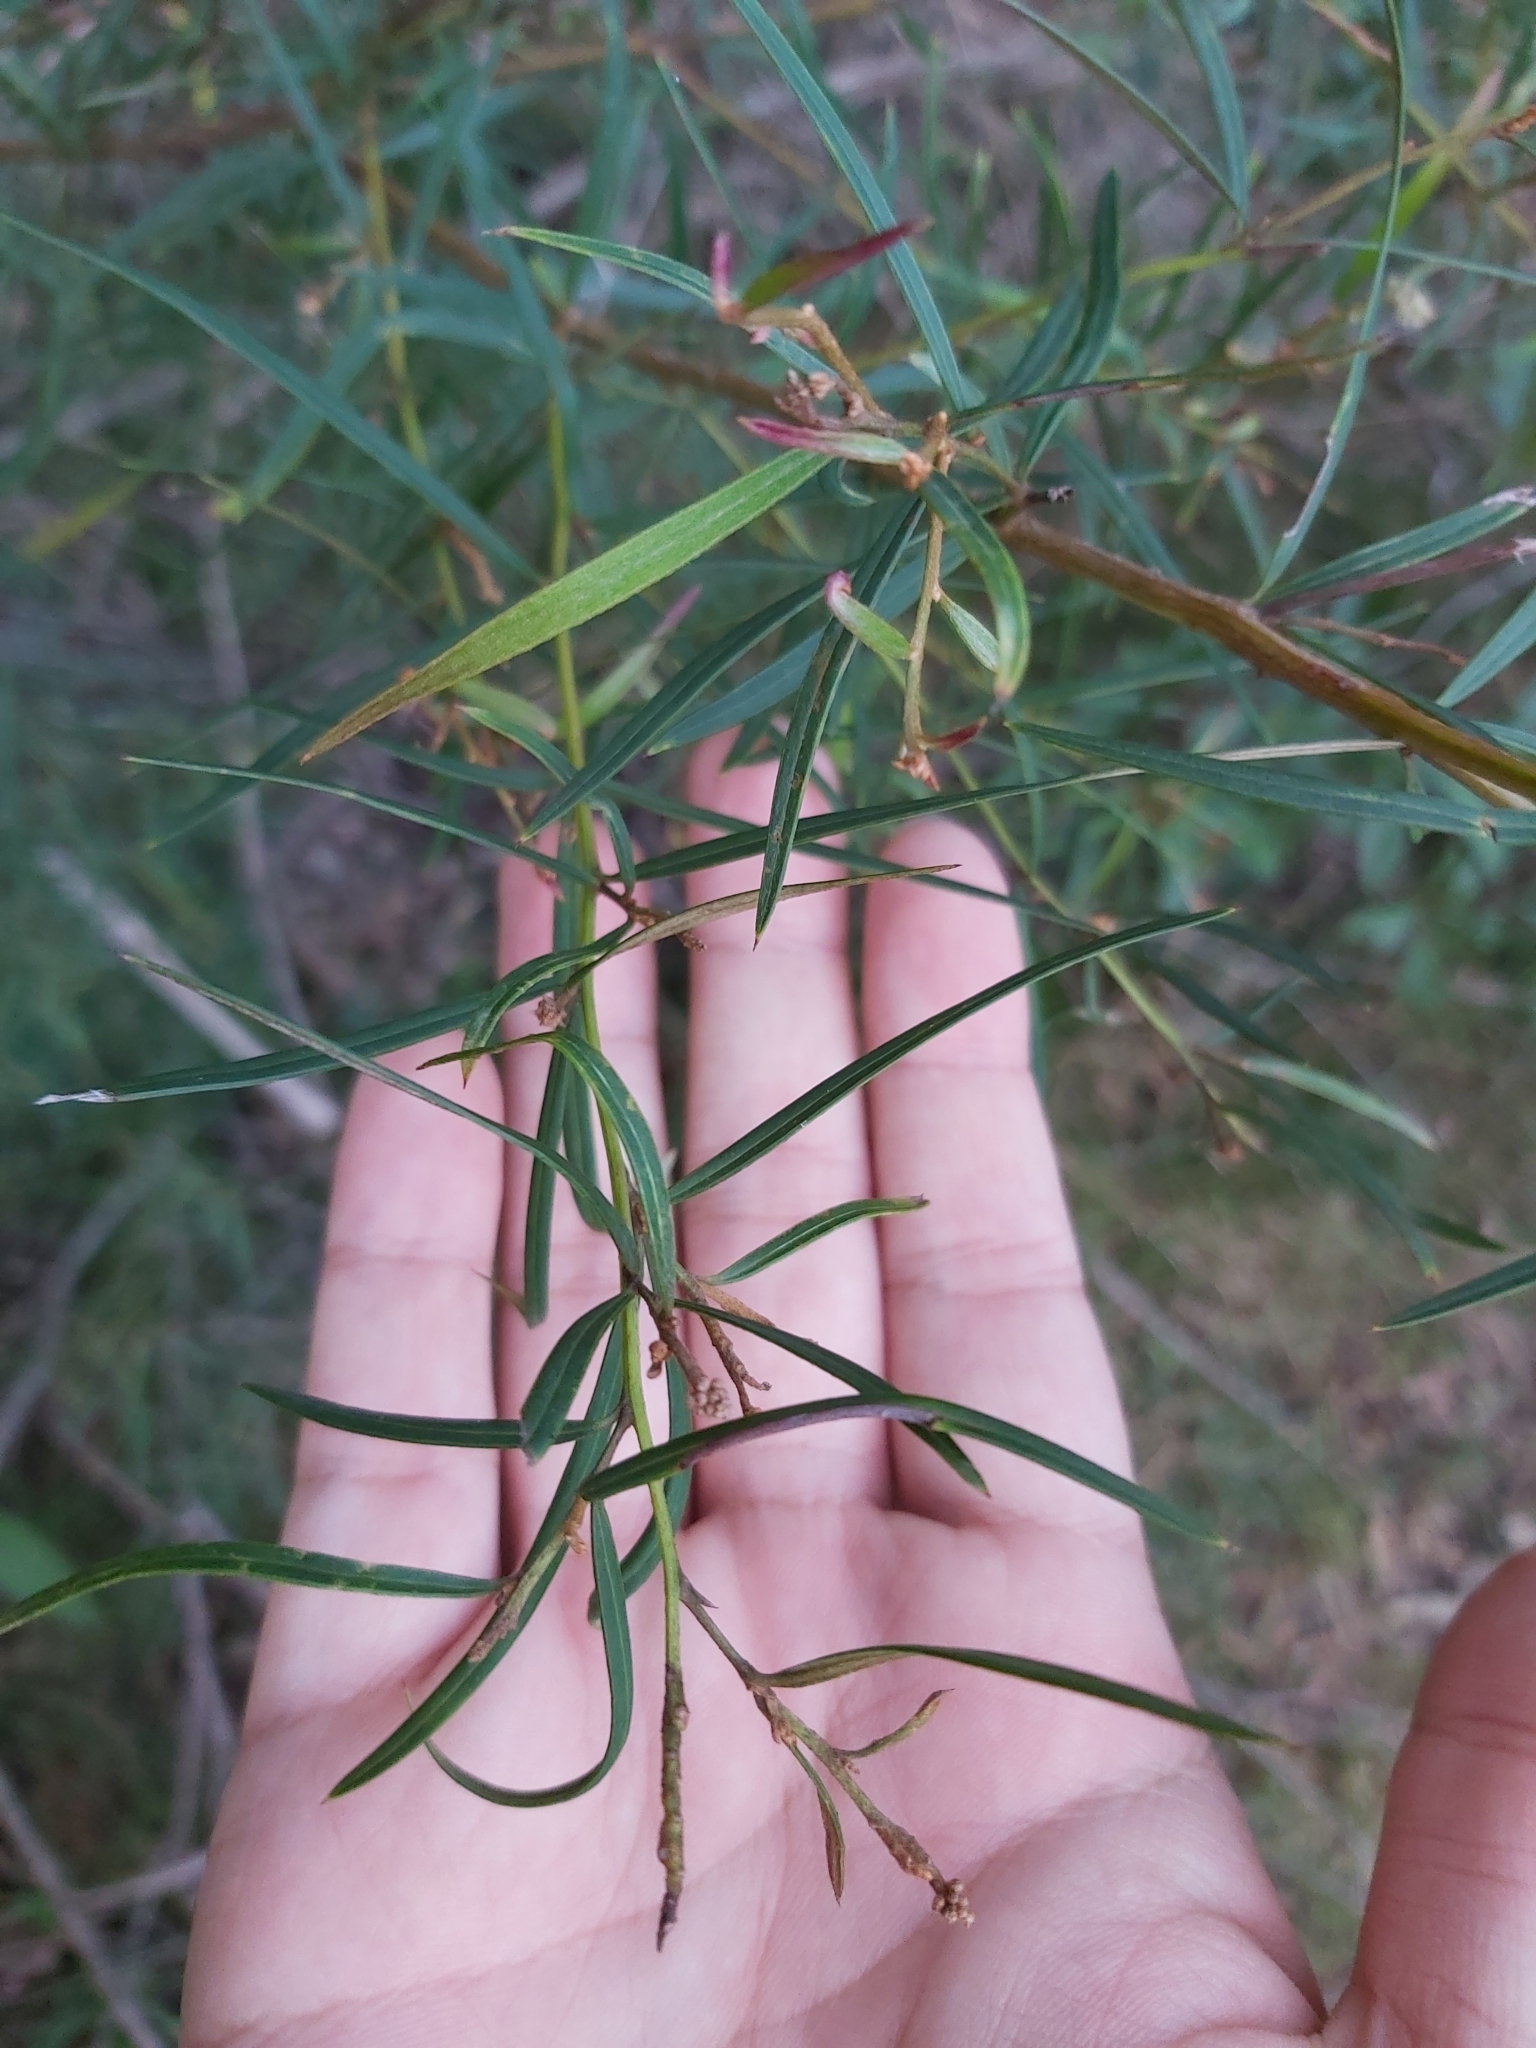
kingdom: Plantae
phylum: Tracheophyta
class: Magnoliopsida
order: Proteales
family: Proteaceae
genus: Grevillea
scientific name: Grevillea linearifolia
